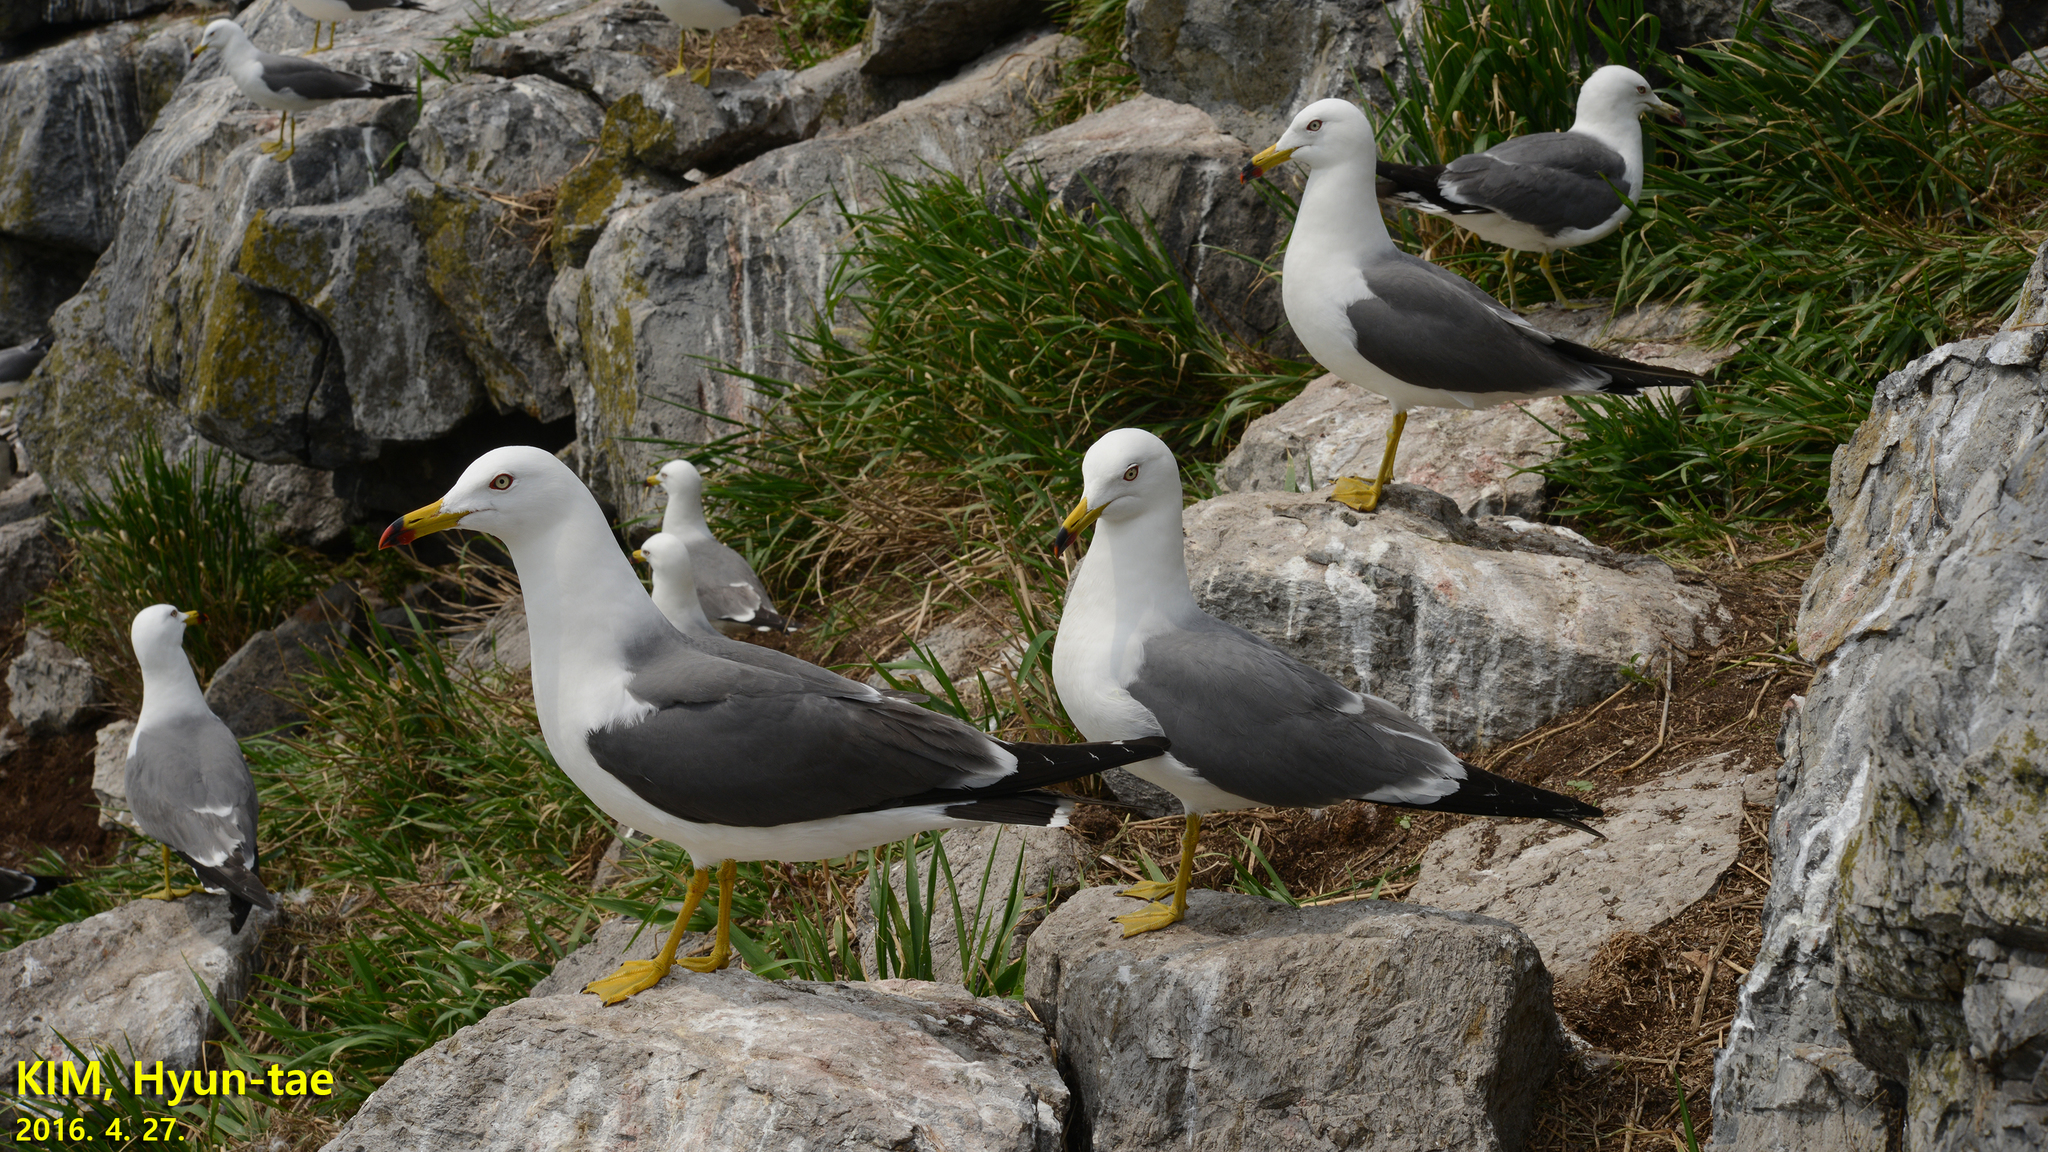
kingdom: Animalia
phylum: Chordata
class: Aves
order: Charadriiformes
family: Laridae
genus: Larus
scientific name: Larus crassirostris
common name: Black-tailed gull
